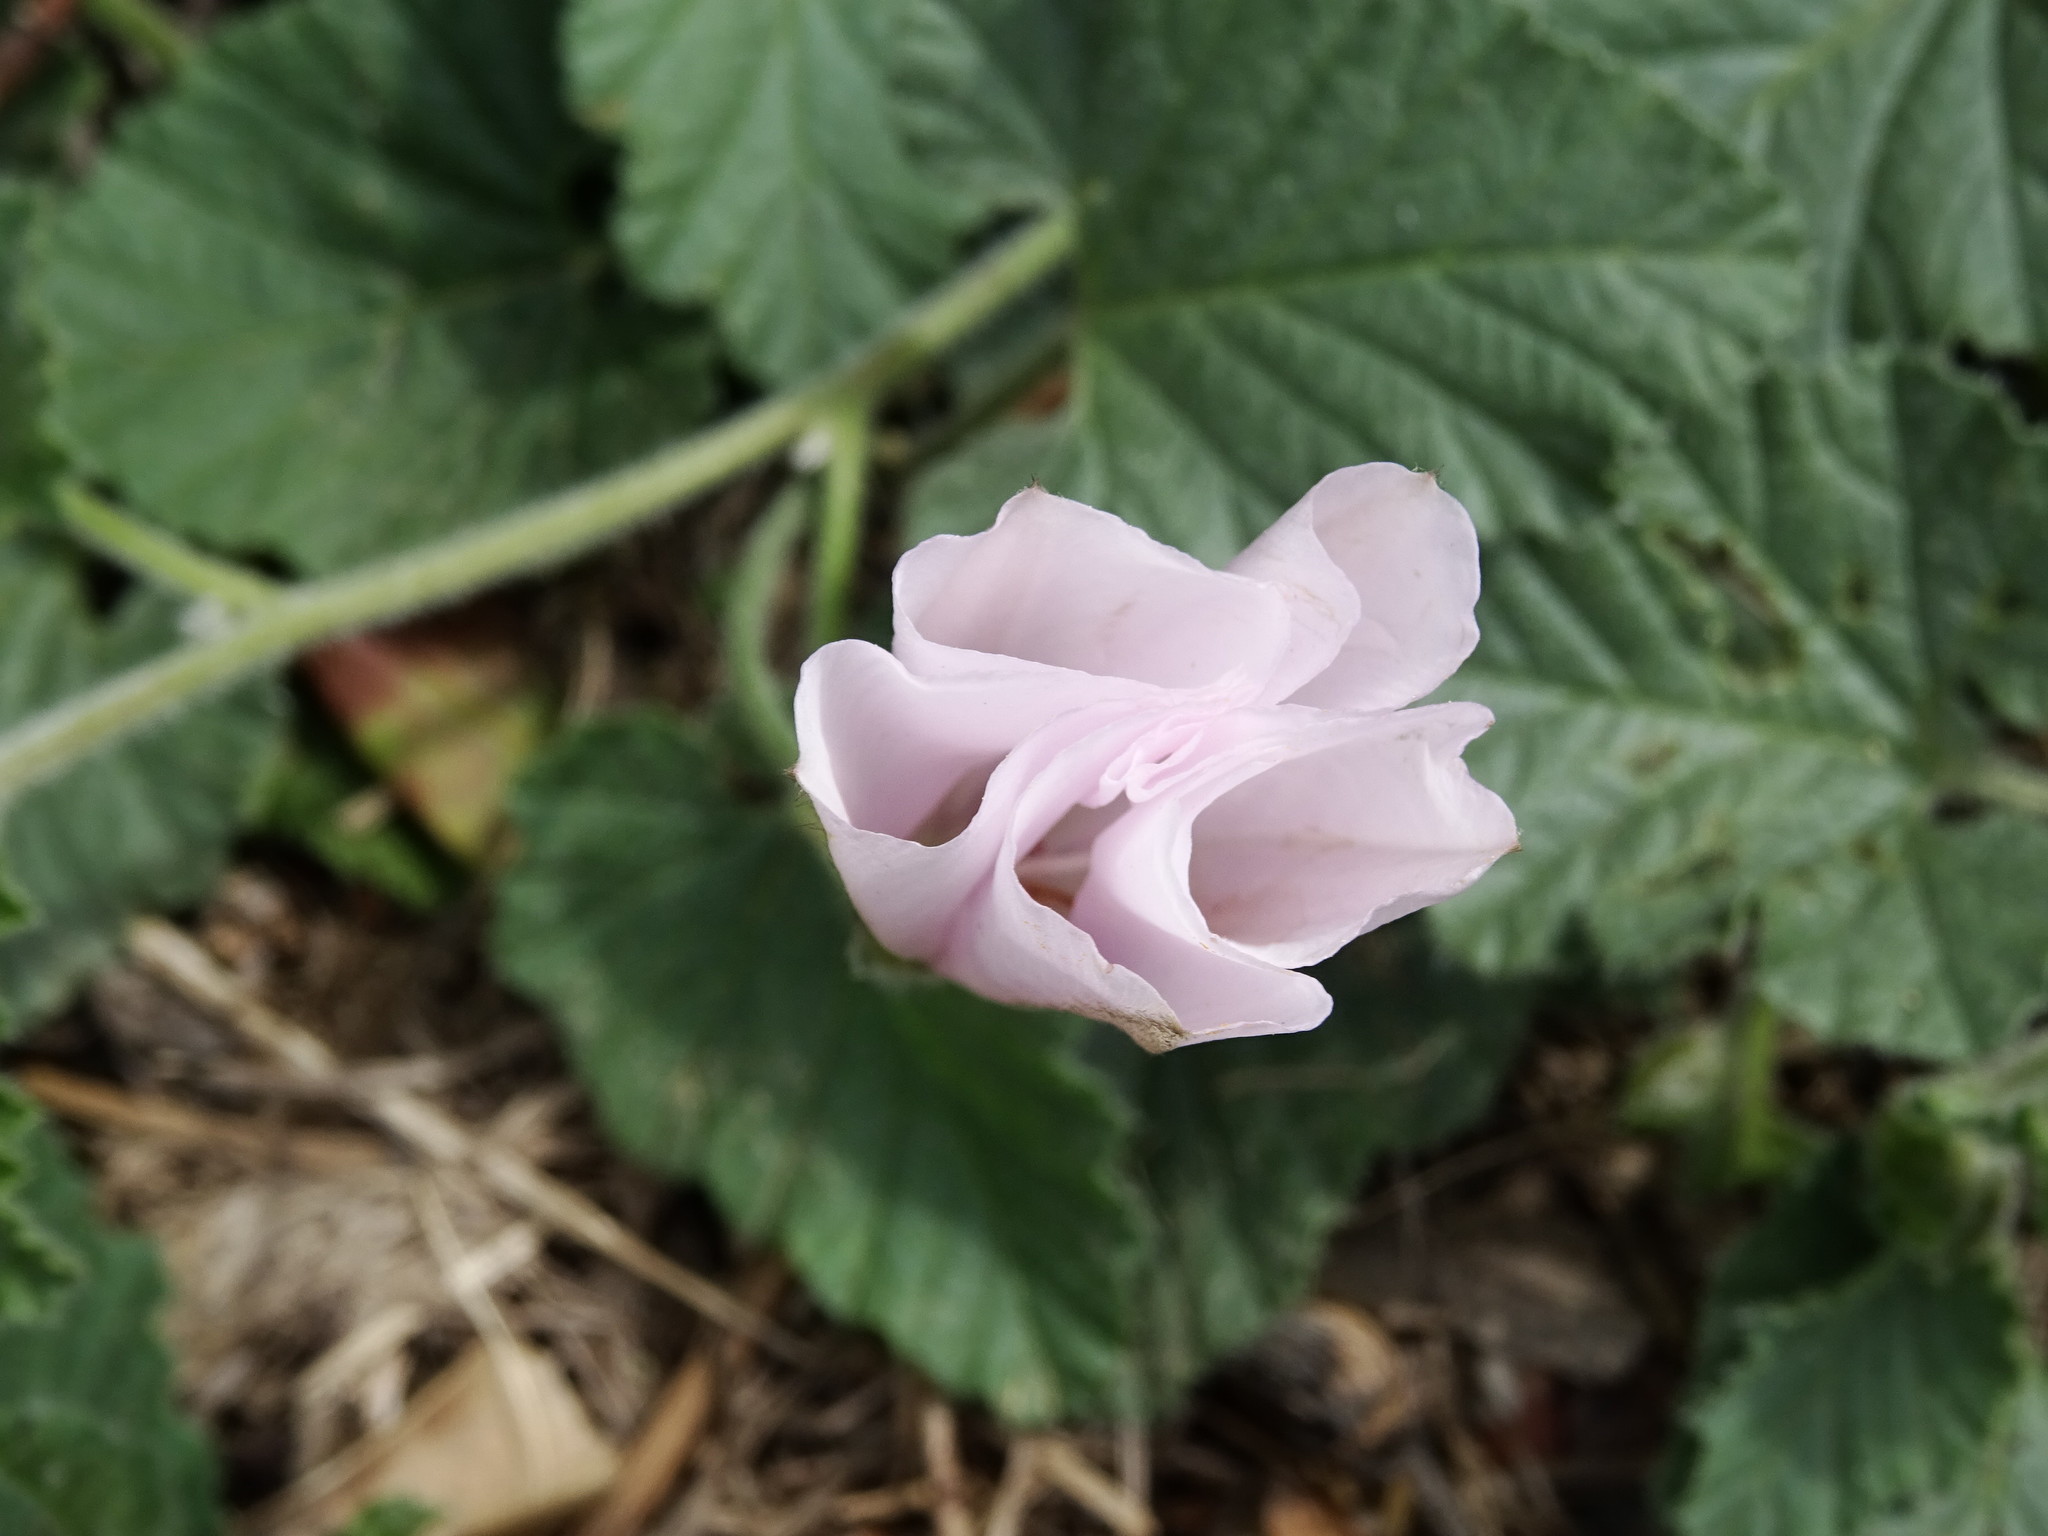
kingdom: Plantae
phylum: Tracheophyta
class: Magnoliopsida
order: Solanales
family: Convolvulaceae
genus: Convolvulus
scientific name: Convolvulus althaeoides
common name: Mallow bindweed
